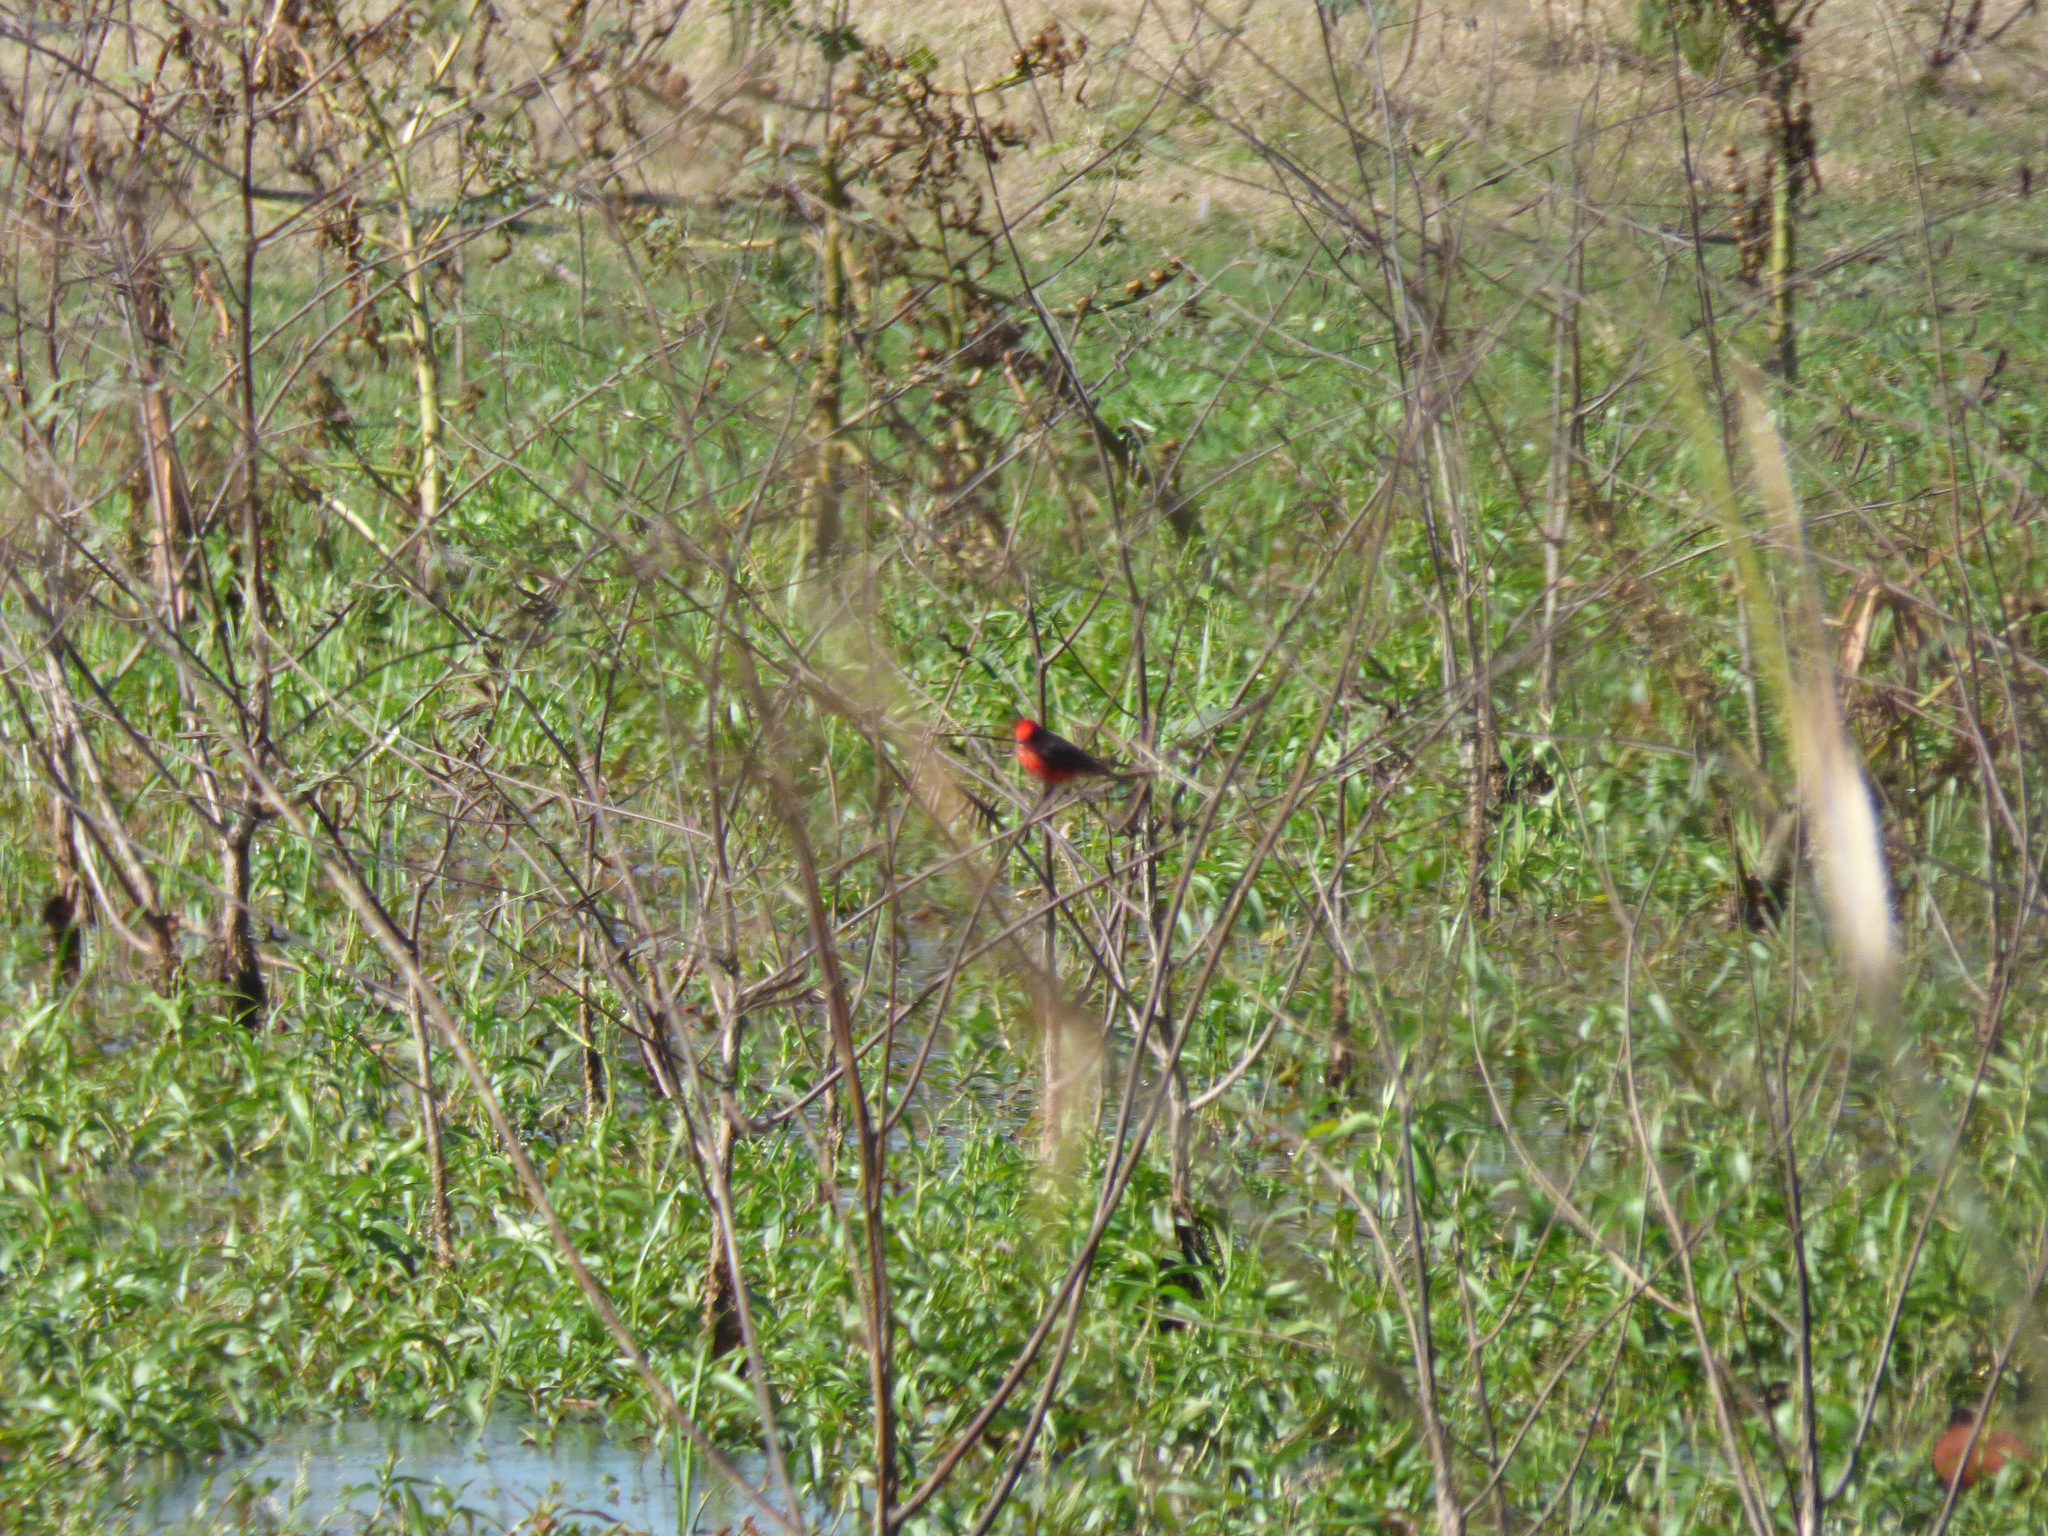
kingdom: Animalia
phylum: Chordata
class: Aves
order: Passeriformes
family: Tyrannidae
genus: Pyrocephalus
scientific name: Pyrocephalus rubinus
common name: Vermilion flycatcher
